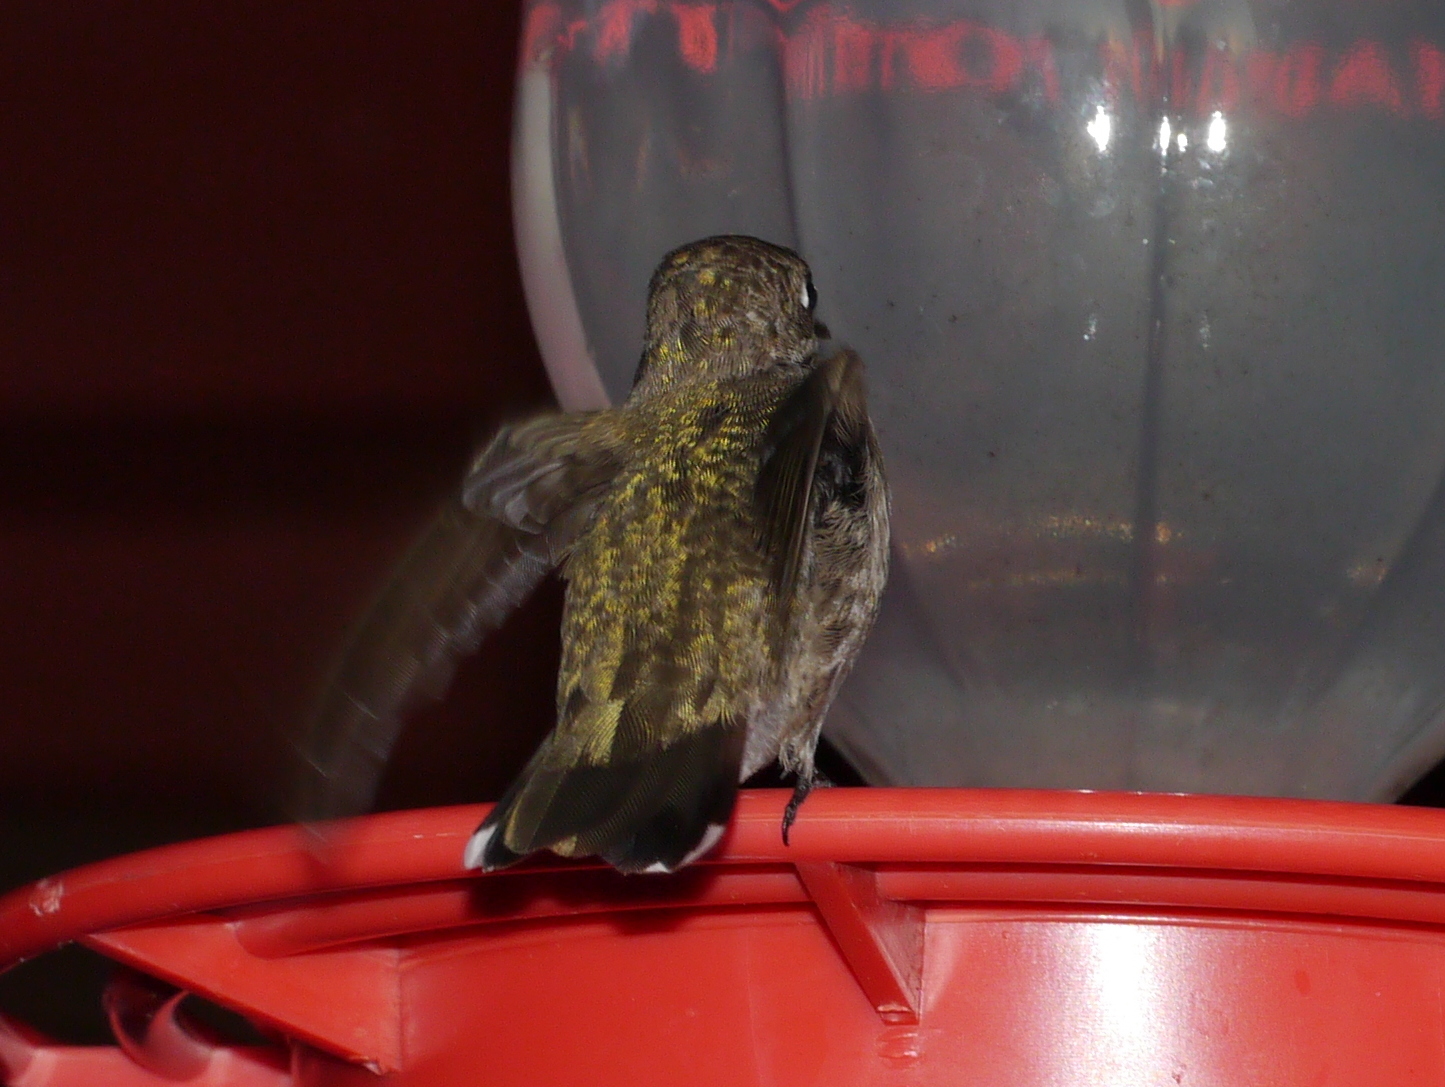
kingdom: Animalia
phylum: Chordata
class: Aves
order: Apodiformes
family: Trochilidae
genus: Archilochus
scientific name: Archilochus alexandri
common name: Black-chinned hummingbird
